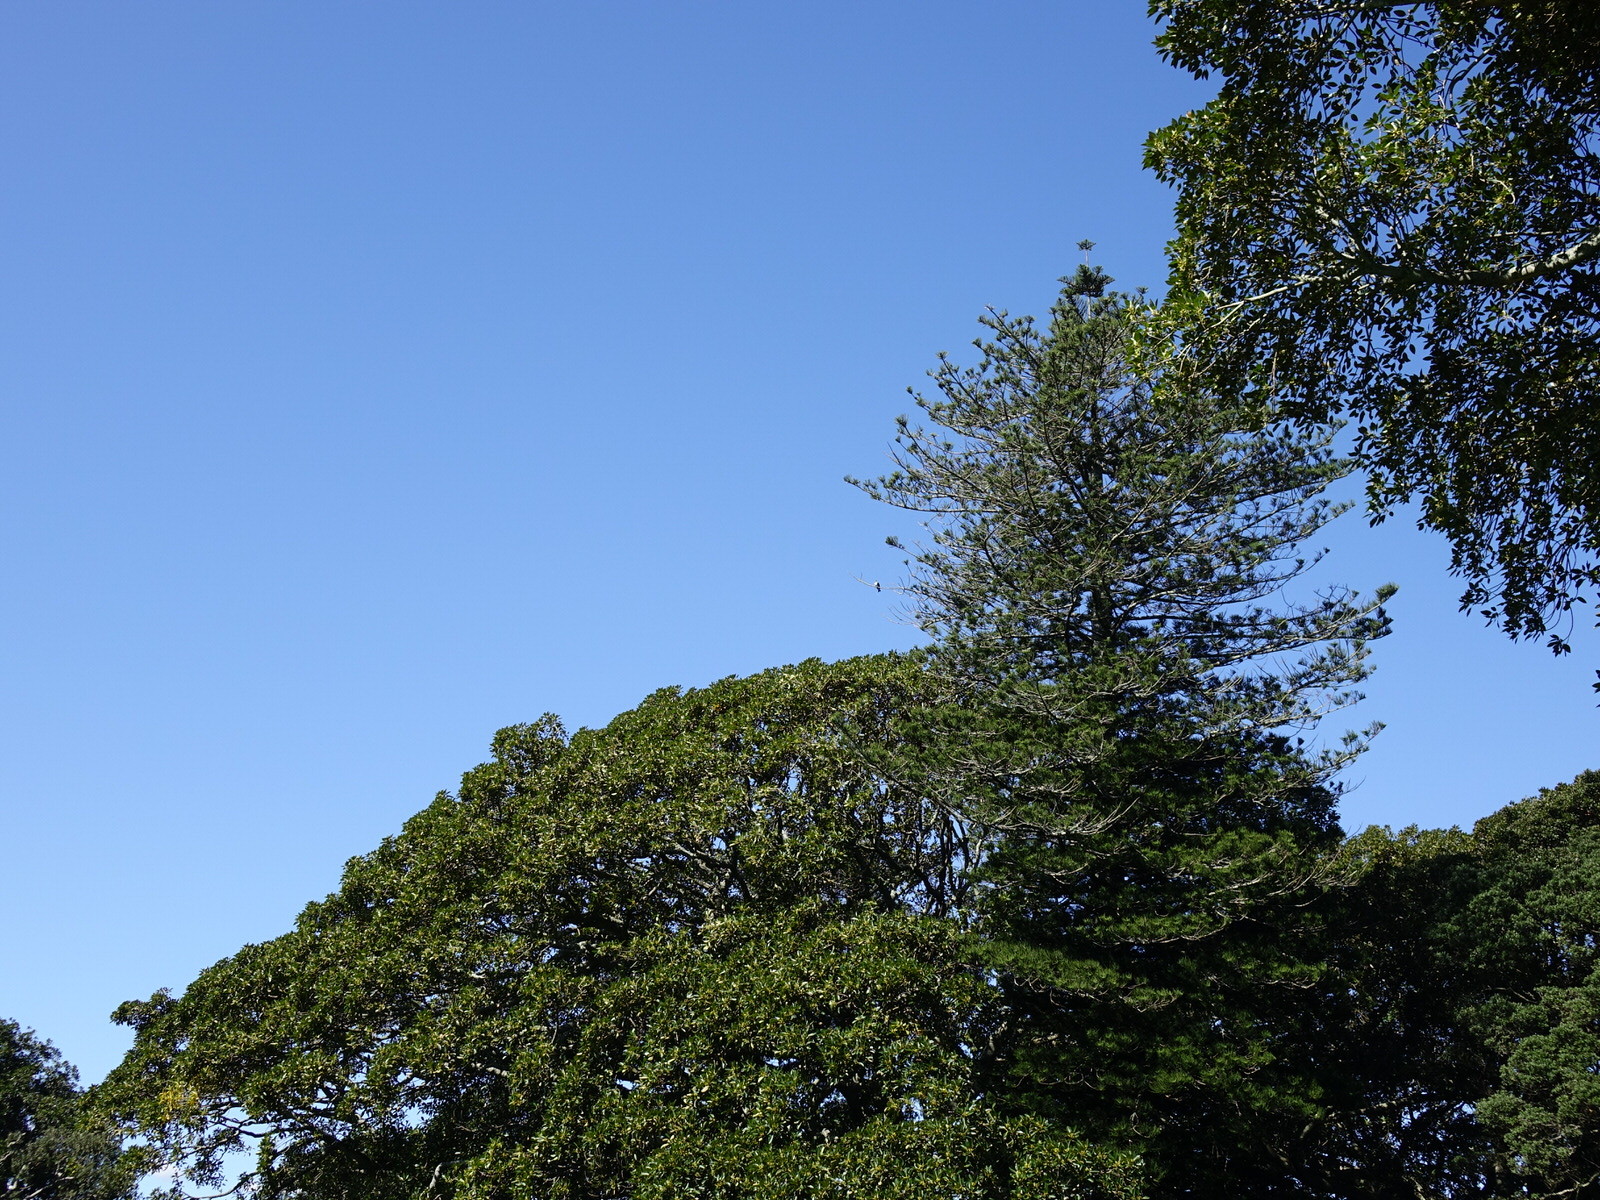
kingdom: Animalia
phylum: Chordata
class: Aves
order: Columbiformes
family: Columbidae
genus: Hemiphaga
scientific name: Hemiphaga novaeseelandiae
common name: New zealand pigeon
